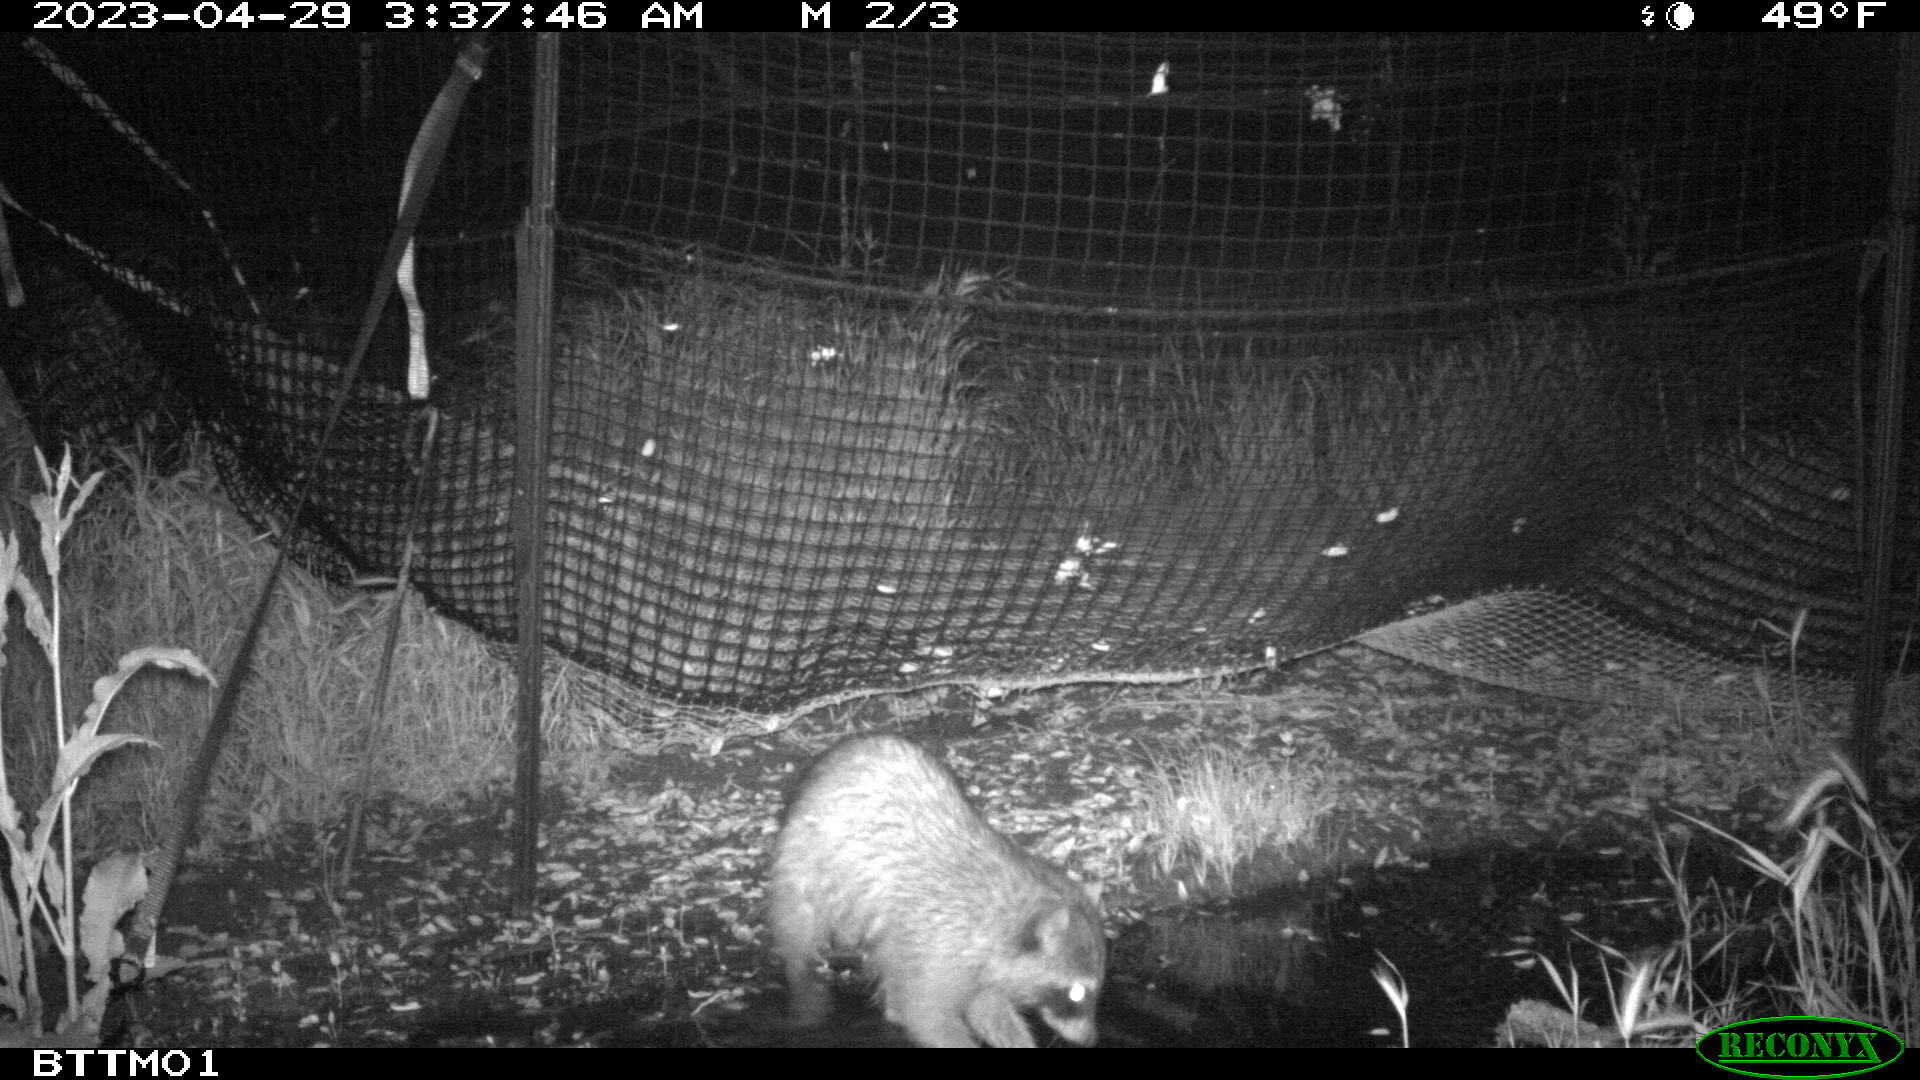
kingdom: Animalia
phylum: Chordata
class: Mammalia
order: Carnivora
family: Procyonidae
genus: Procyon
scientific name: Procyon lotor
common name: Raccoon
